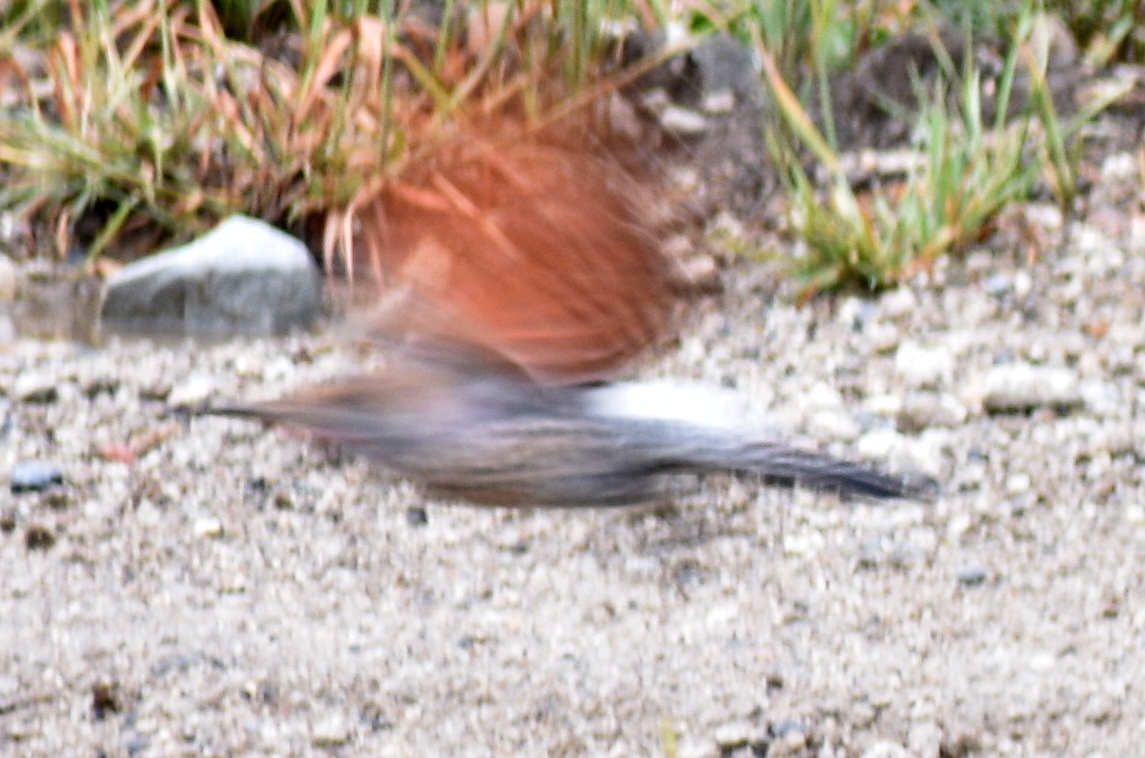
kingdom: Animalia
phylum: Chordata
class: Aves
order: Piciformes
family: Picidae
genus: Colaptes
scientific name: Colaptes auratus
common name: Northern flicker
